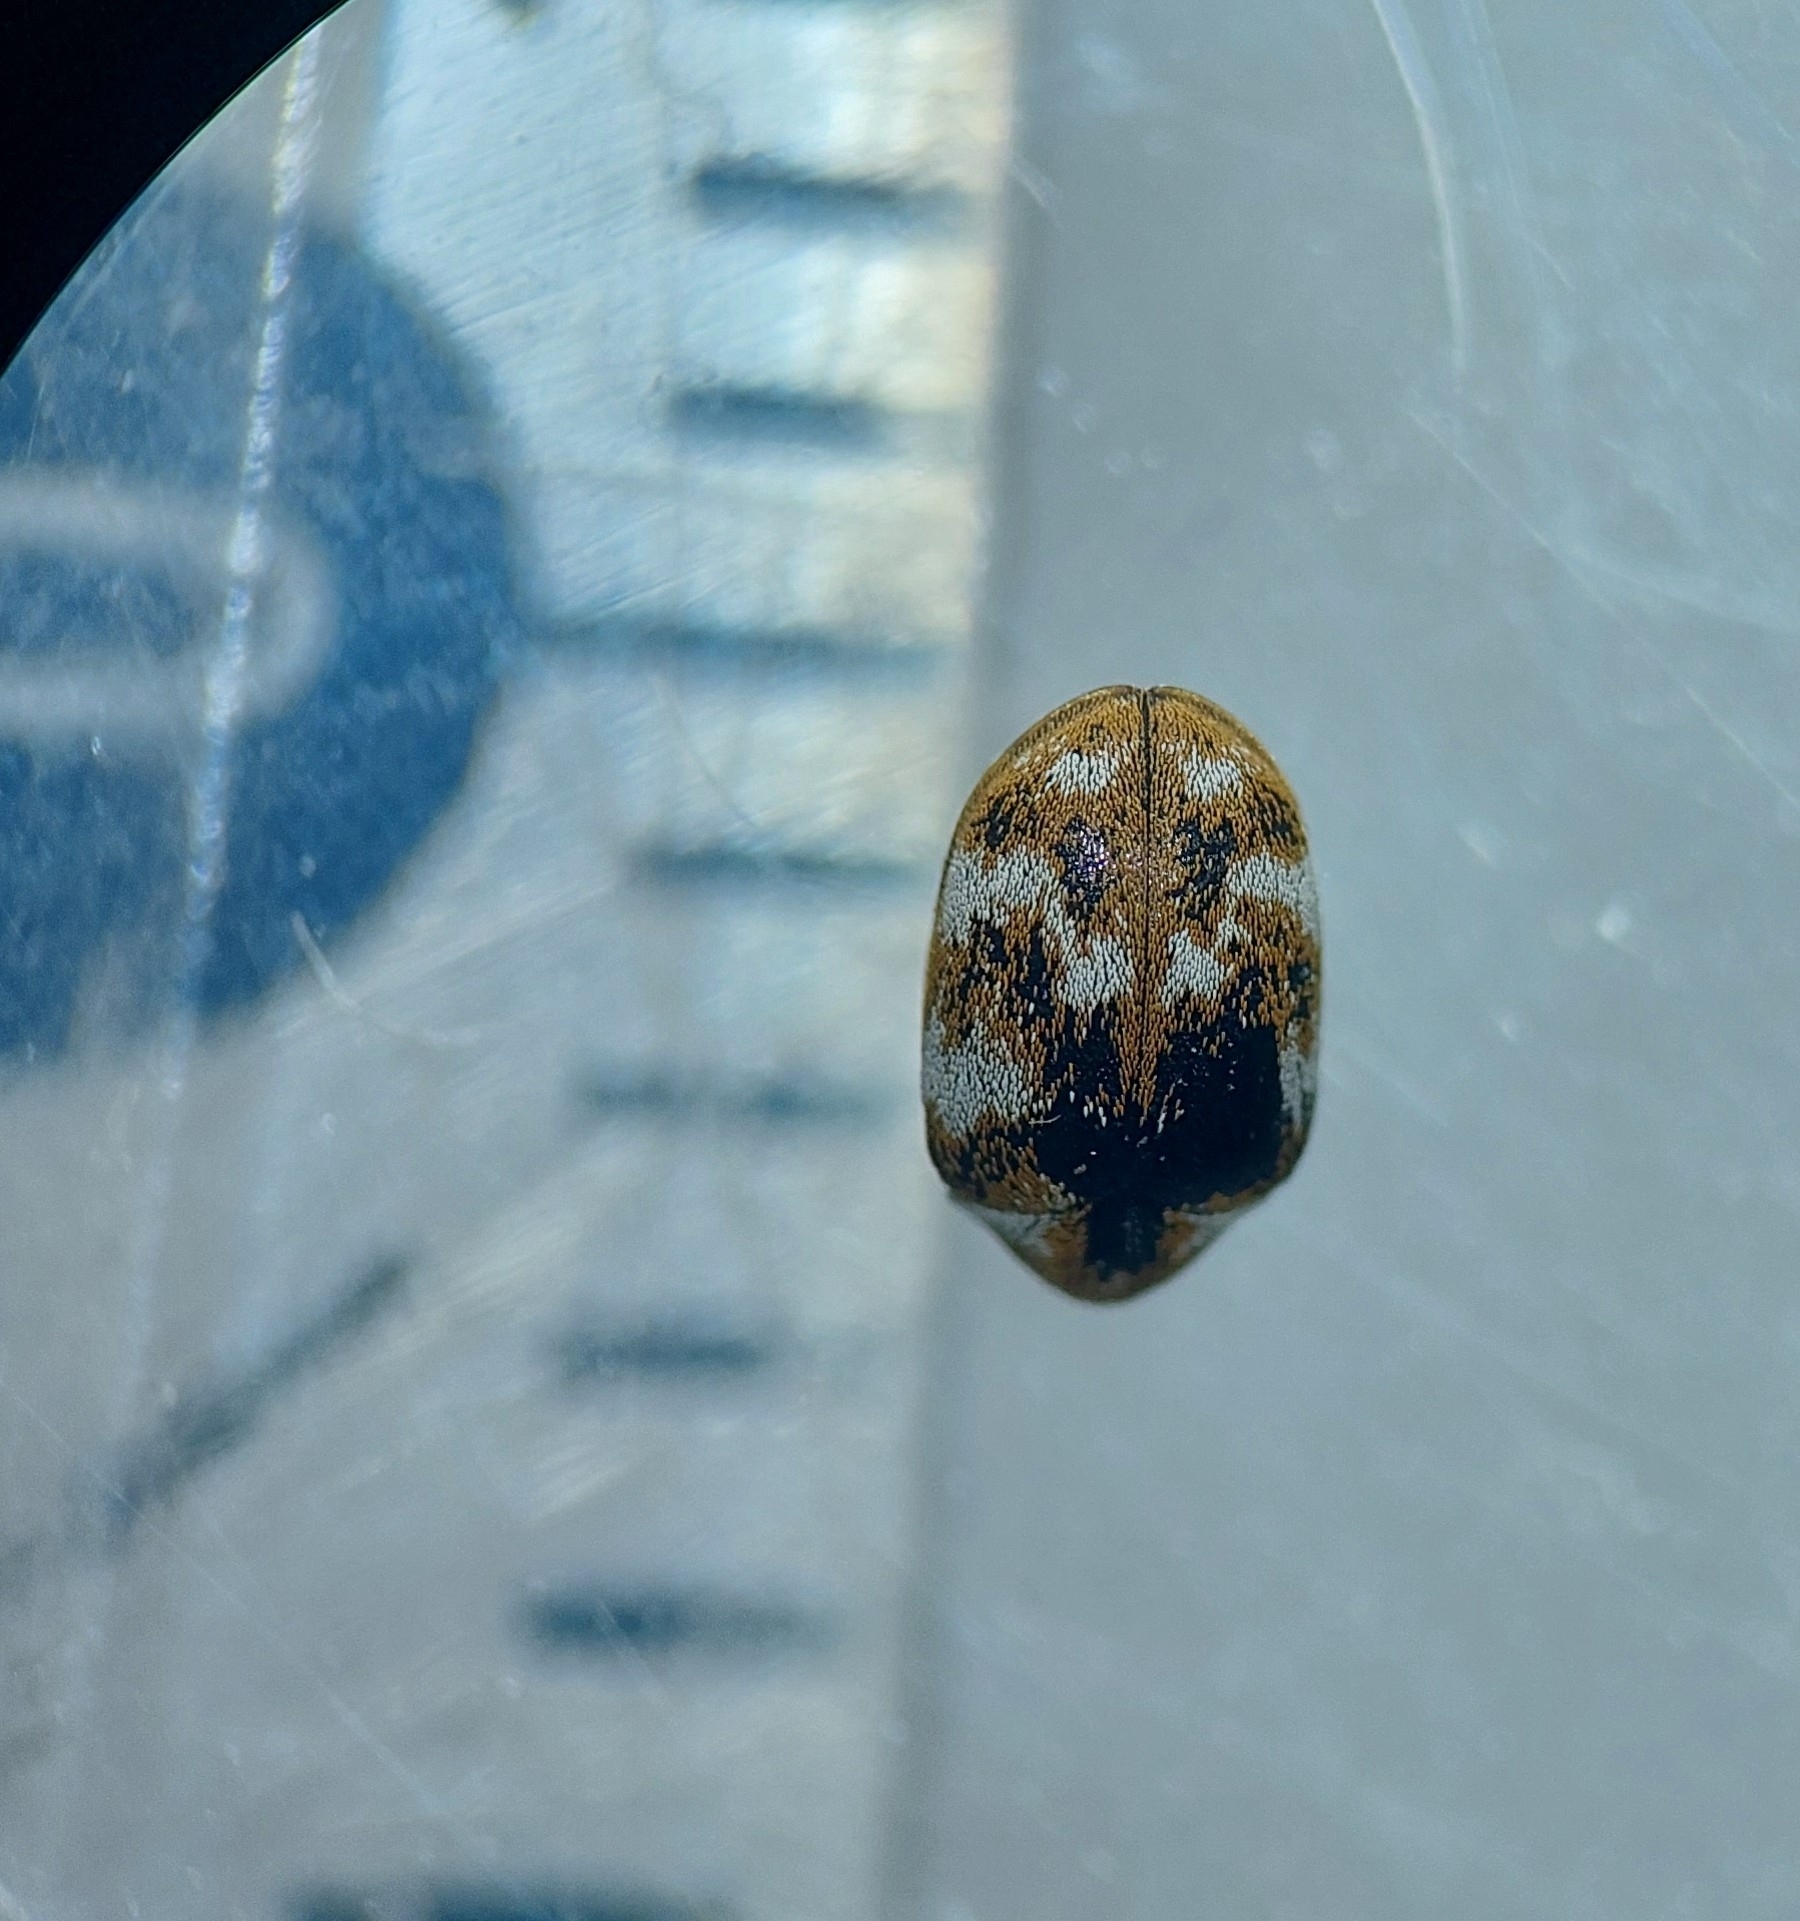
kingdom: Animalia
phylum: Arthropoda
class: Insecta
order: Coleoptera
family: Dermestidae
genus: Anthrenus
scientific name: Anthrenus verbasci
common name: Varied carpet beetle
